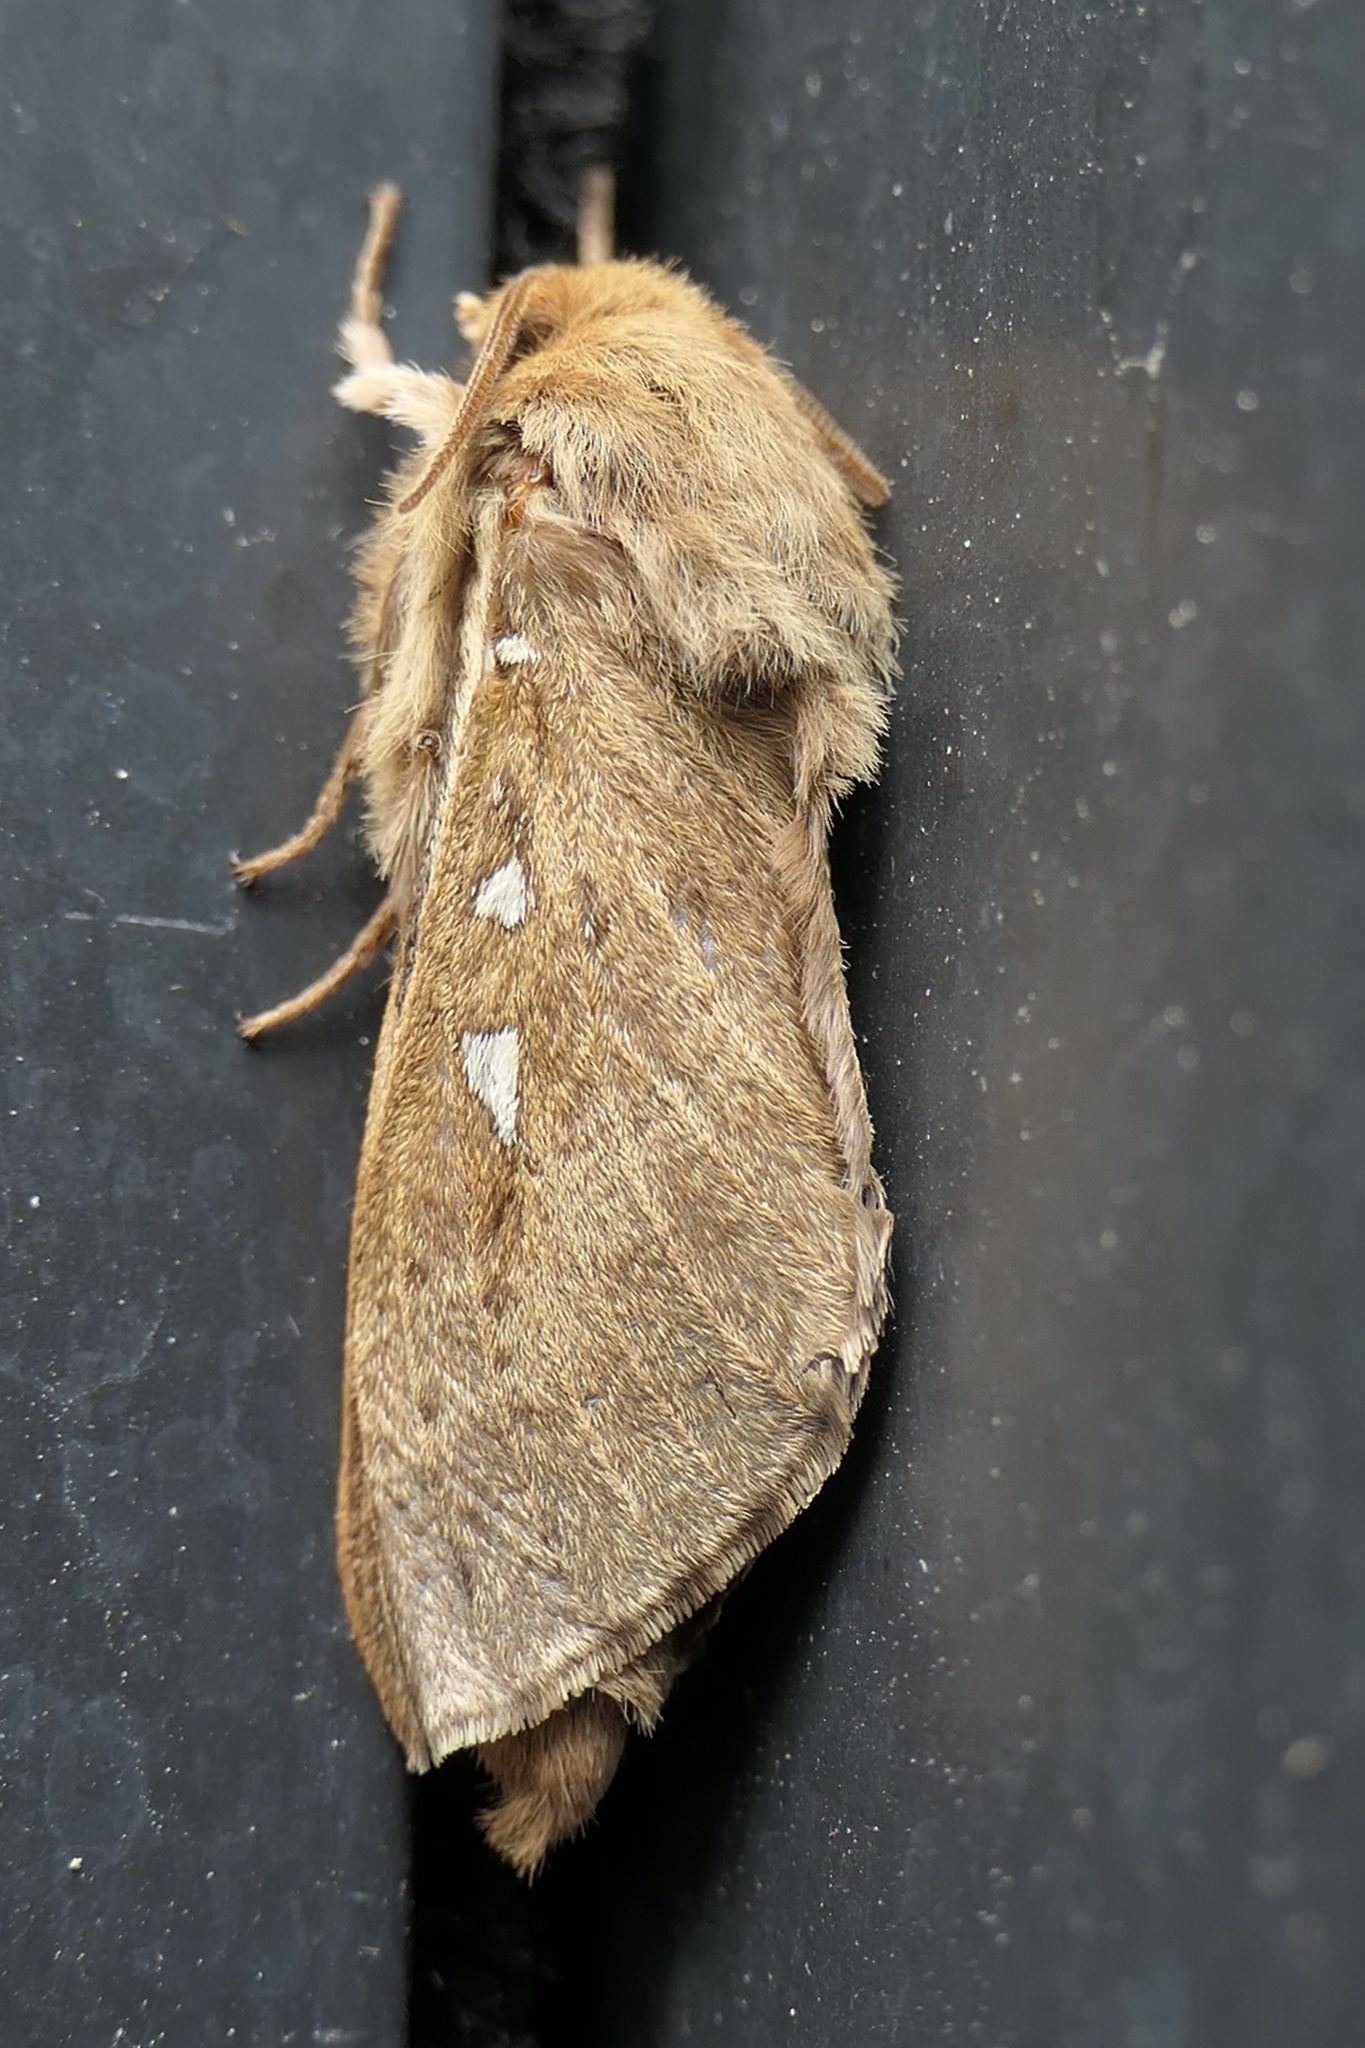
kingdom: Animalia
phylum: Arthropoda
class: Insecta
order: Lepidoptera
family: Hepialidae
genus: Wiseana
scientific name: Wiseana copularis
